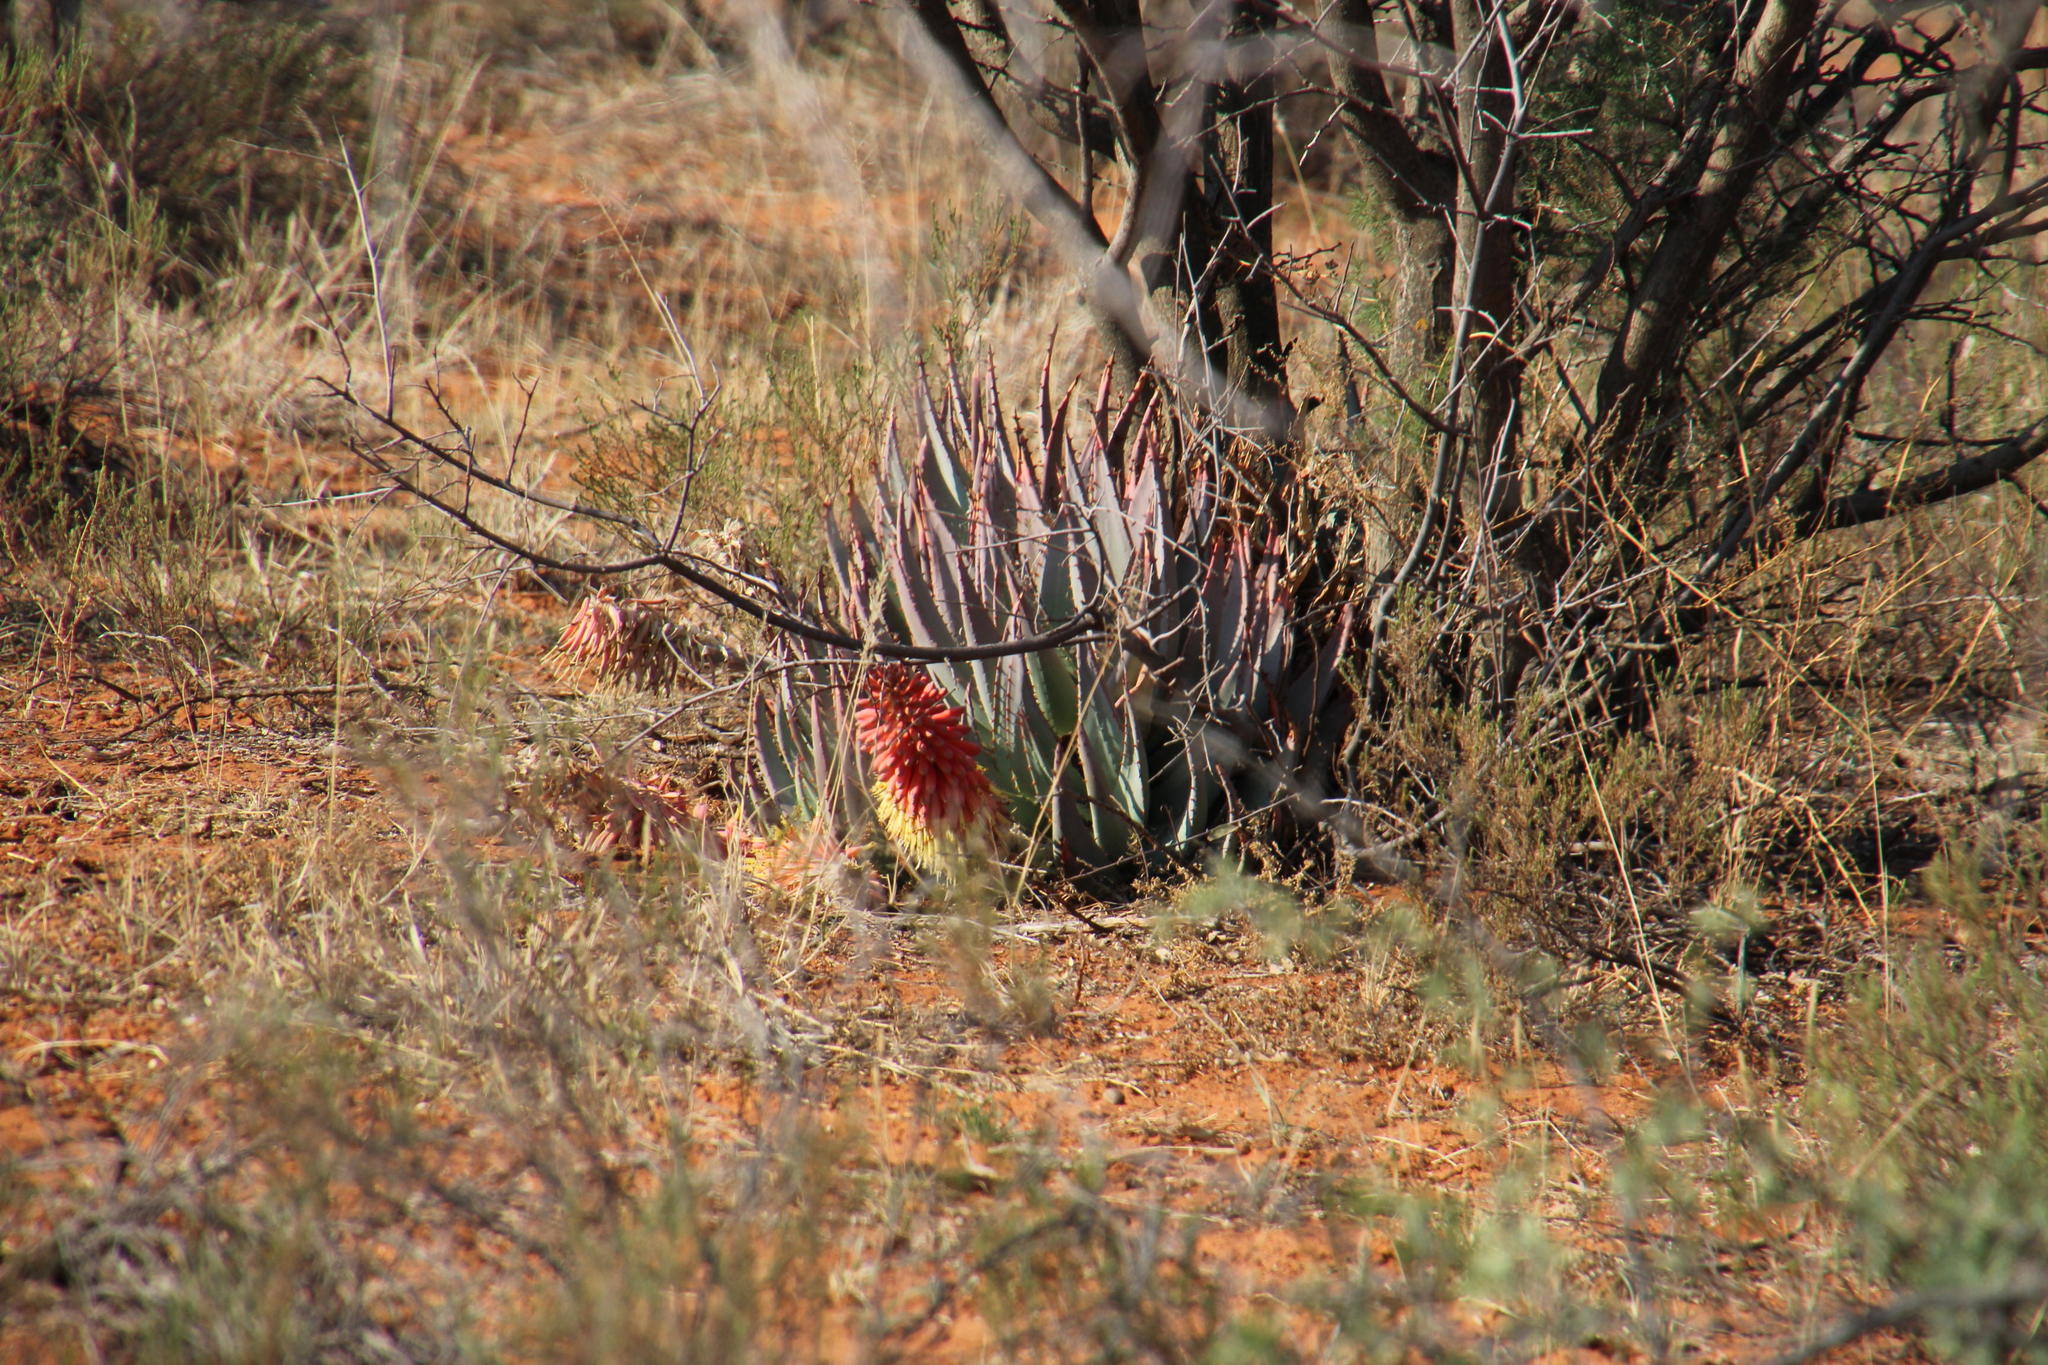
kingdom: Plantae
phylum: Tracheophyta
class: Liliopsida
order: Asparagales
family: Asphodelaceae
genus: Aloe
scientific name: Aloe claviflora
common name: Cannon aloe
